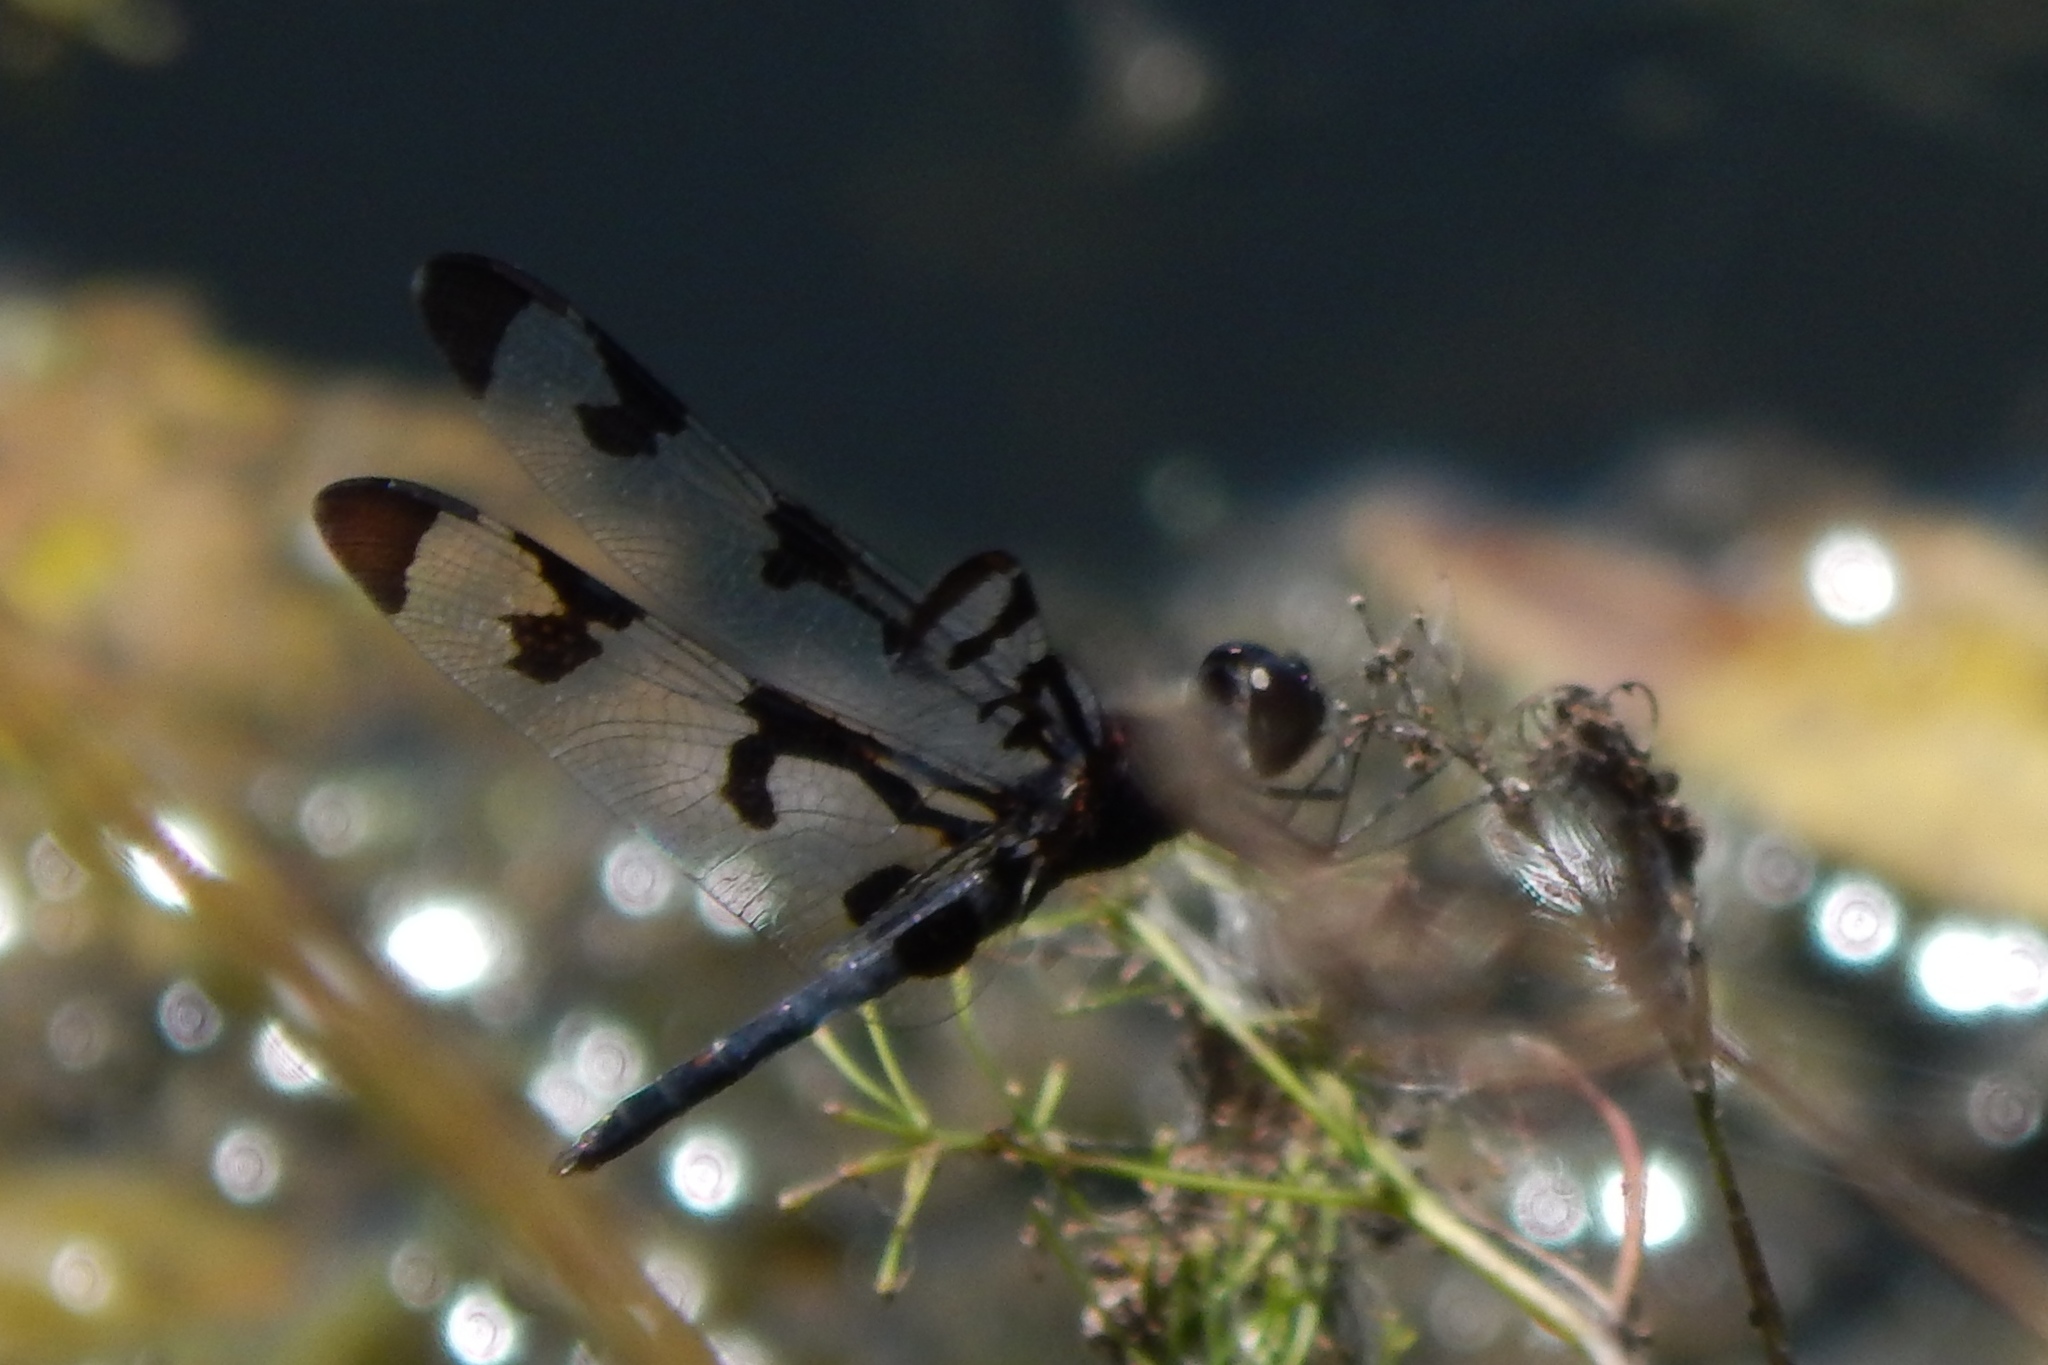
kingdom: Animalia
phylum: Arthropoda
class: Insecta
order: Odonata
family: Libellulidae
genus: Celithemis
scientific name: Celithemis fasciata
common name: Banded pennant
